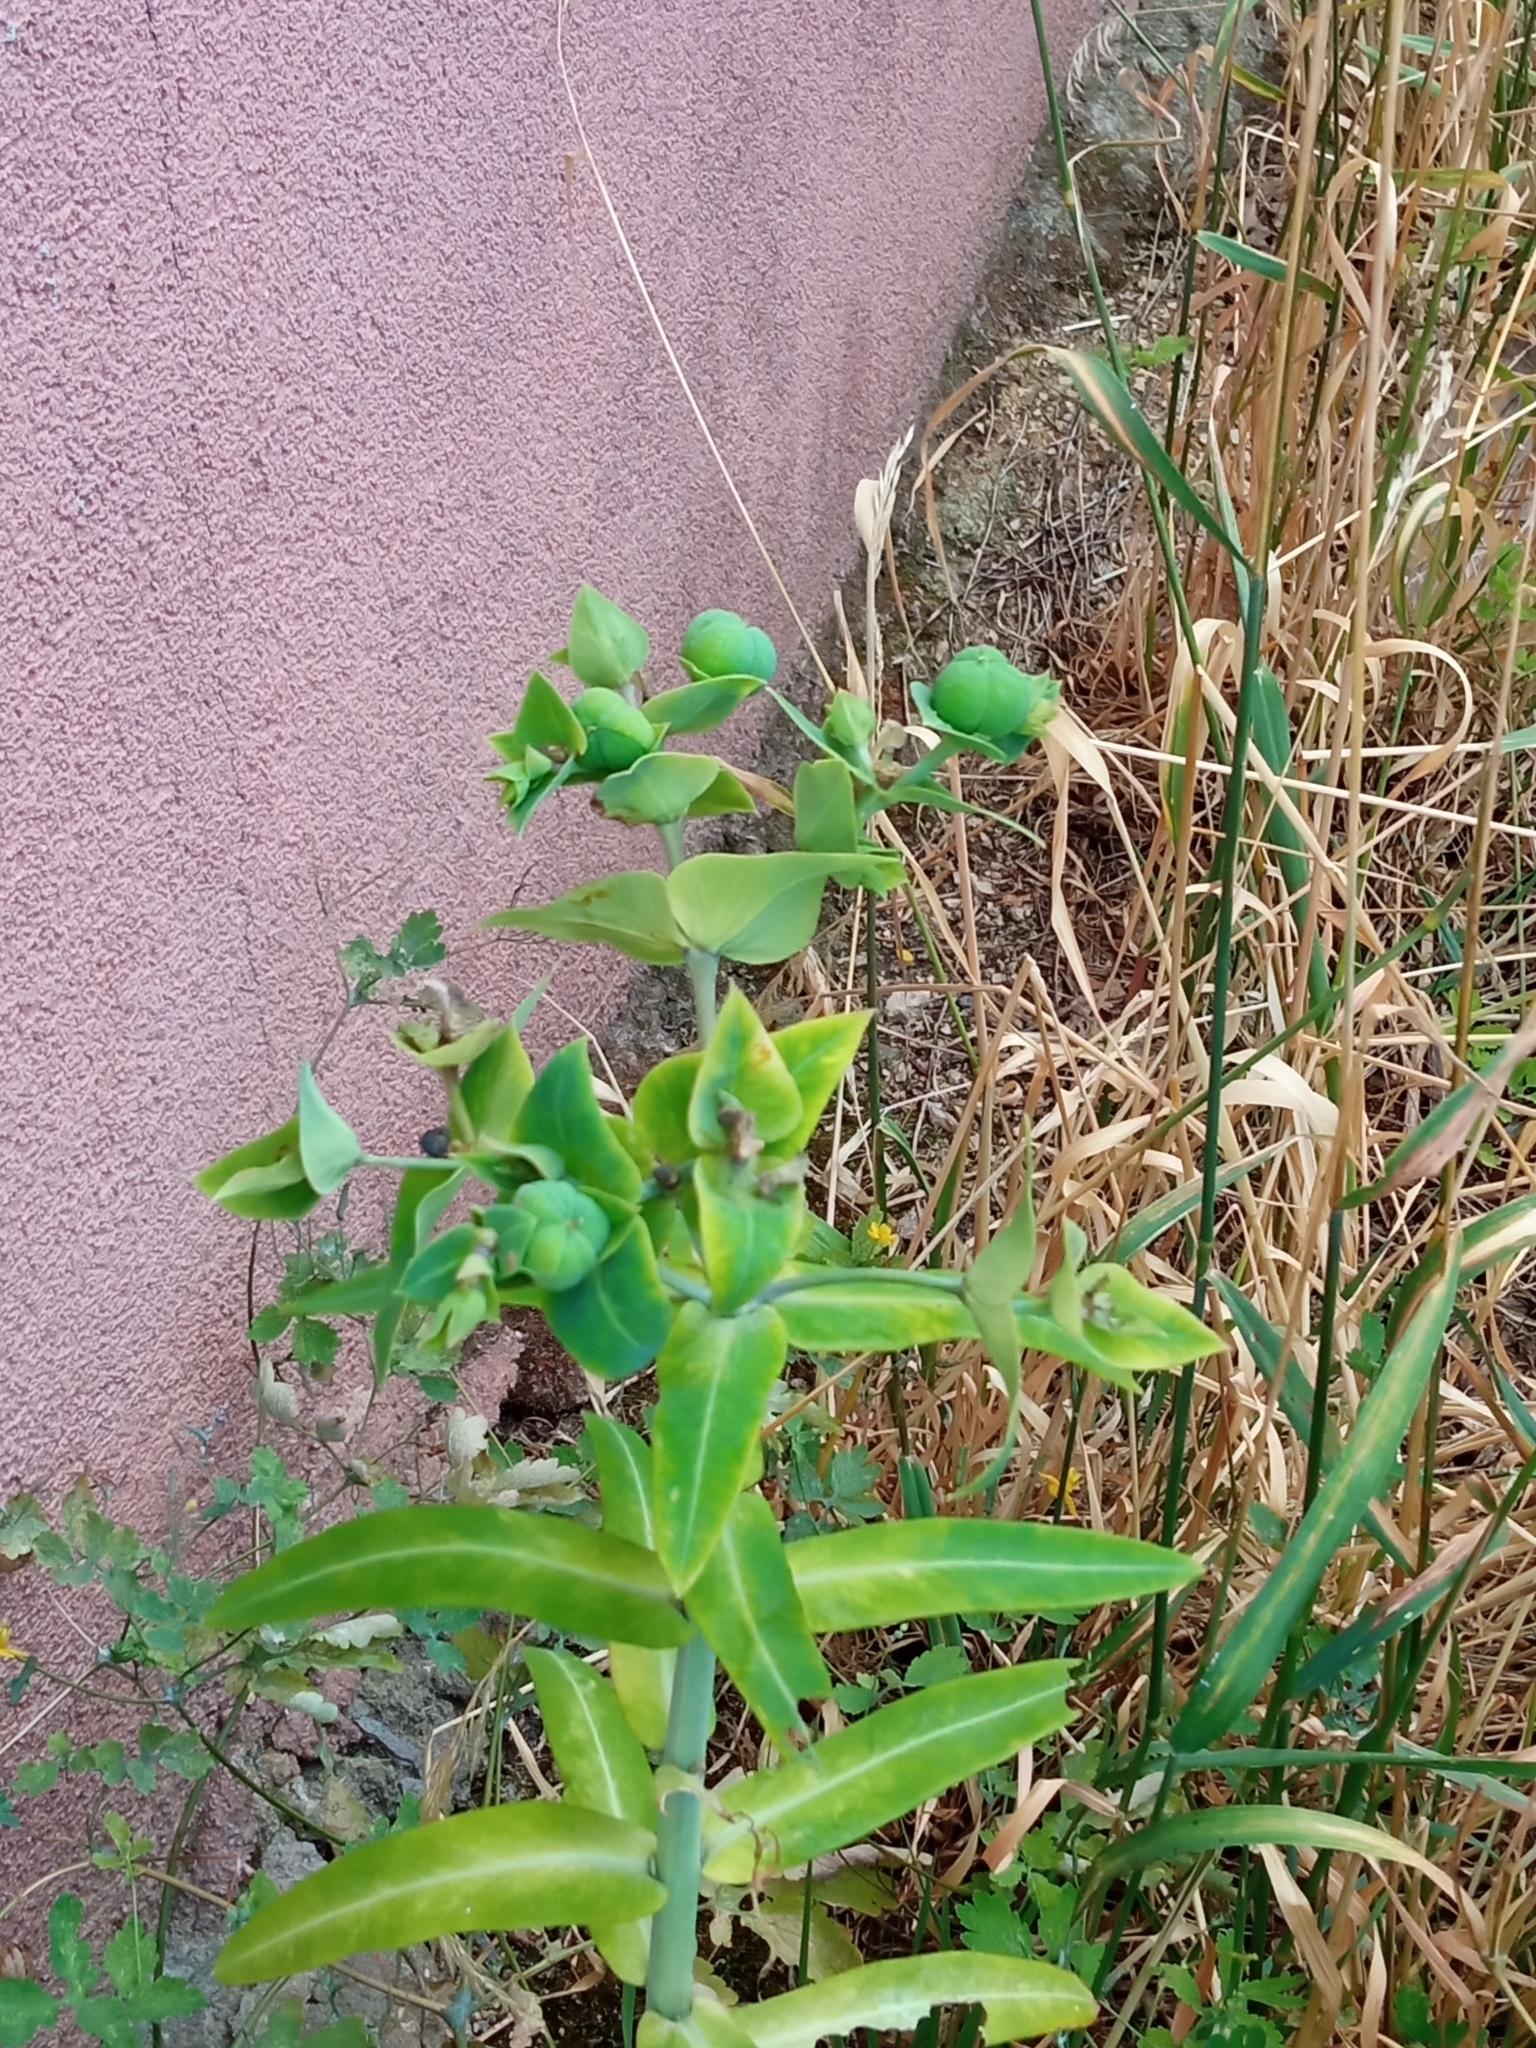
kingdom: Plantae
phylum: Tracheophyta
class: Magnoliopsida
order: Malpighiales
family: Euphorbiaceae
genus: Euphorbia
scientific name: Euphorbia lathyris
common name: Caper spurge
